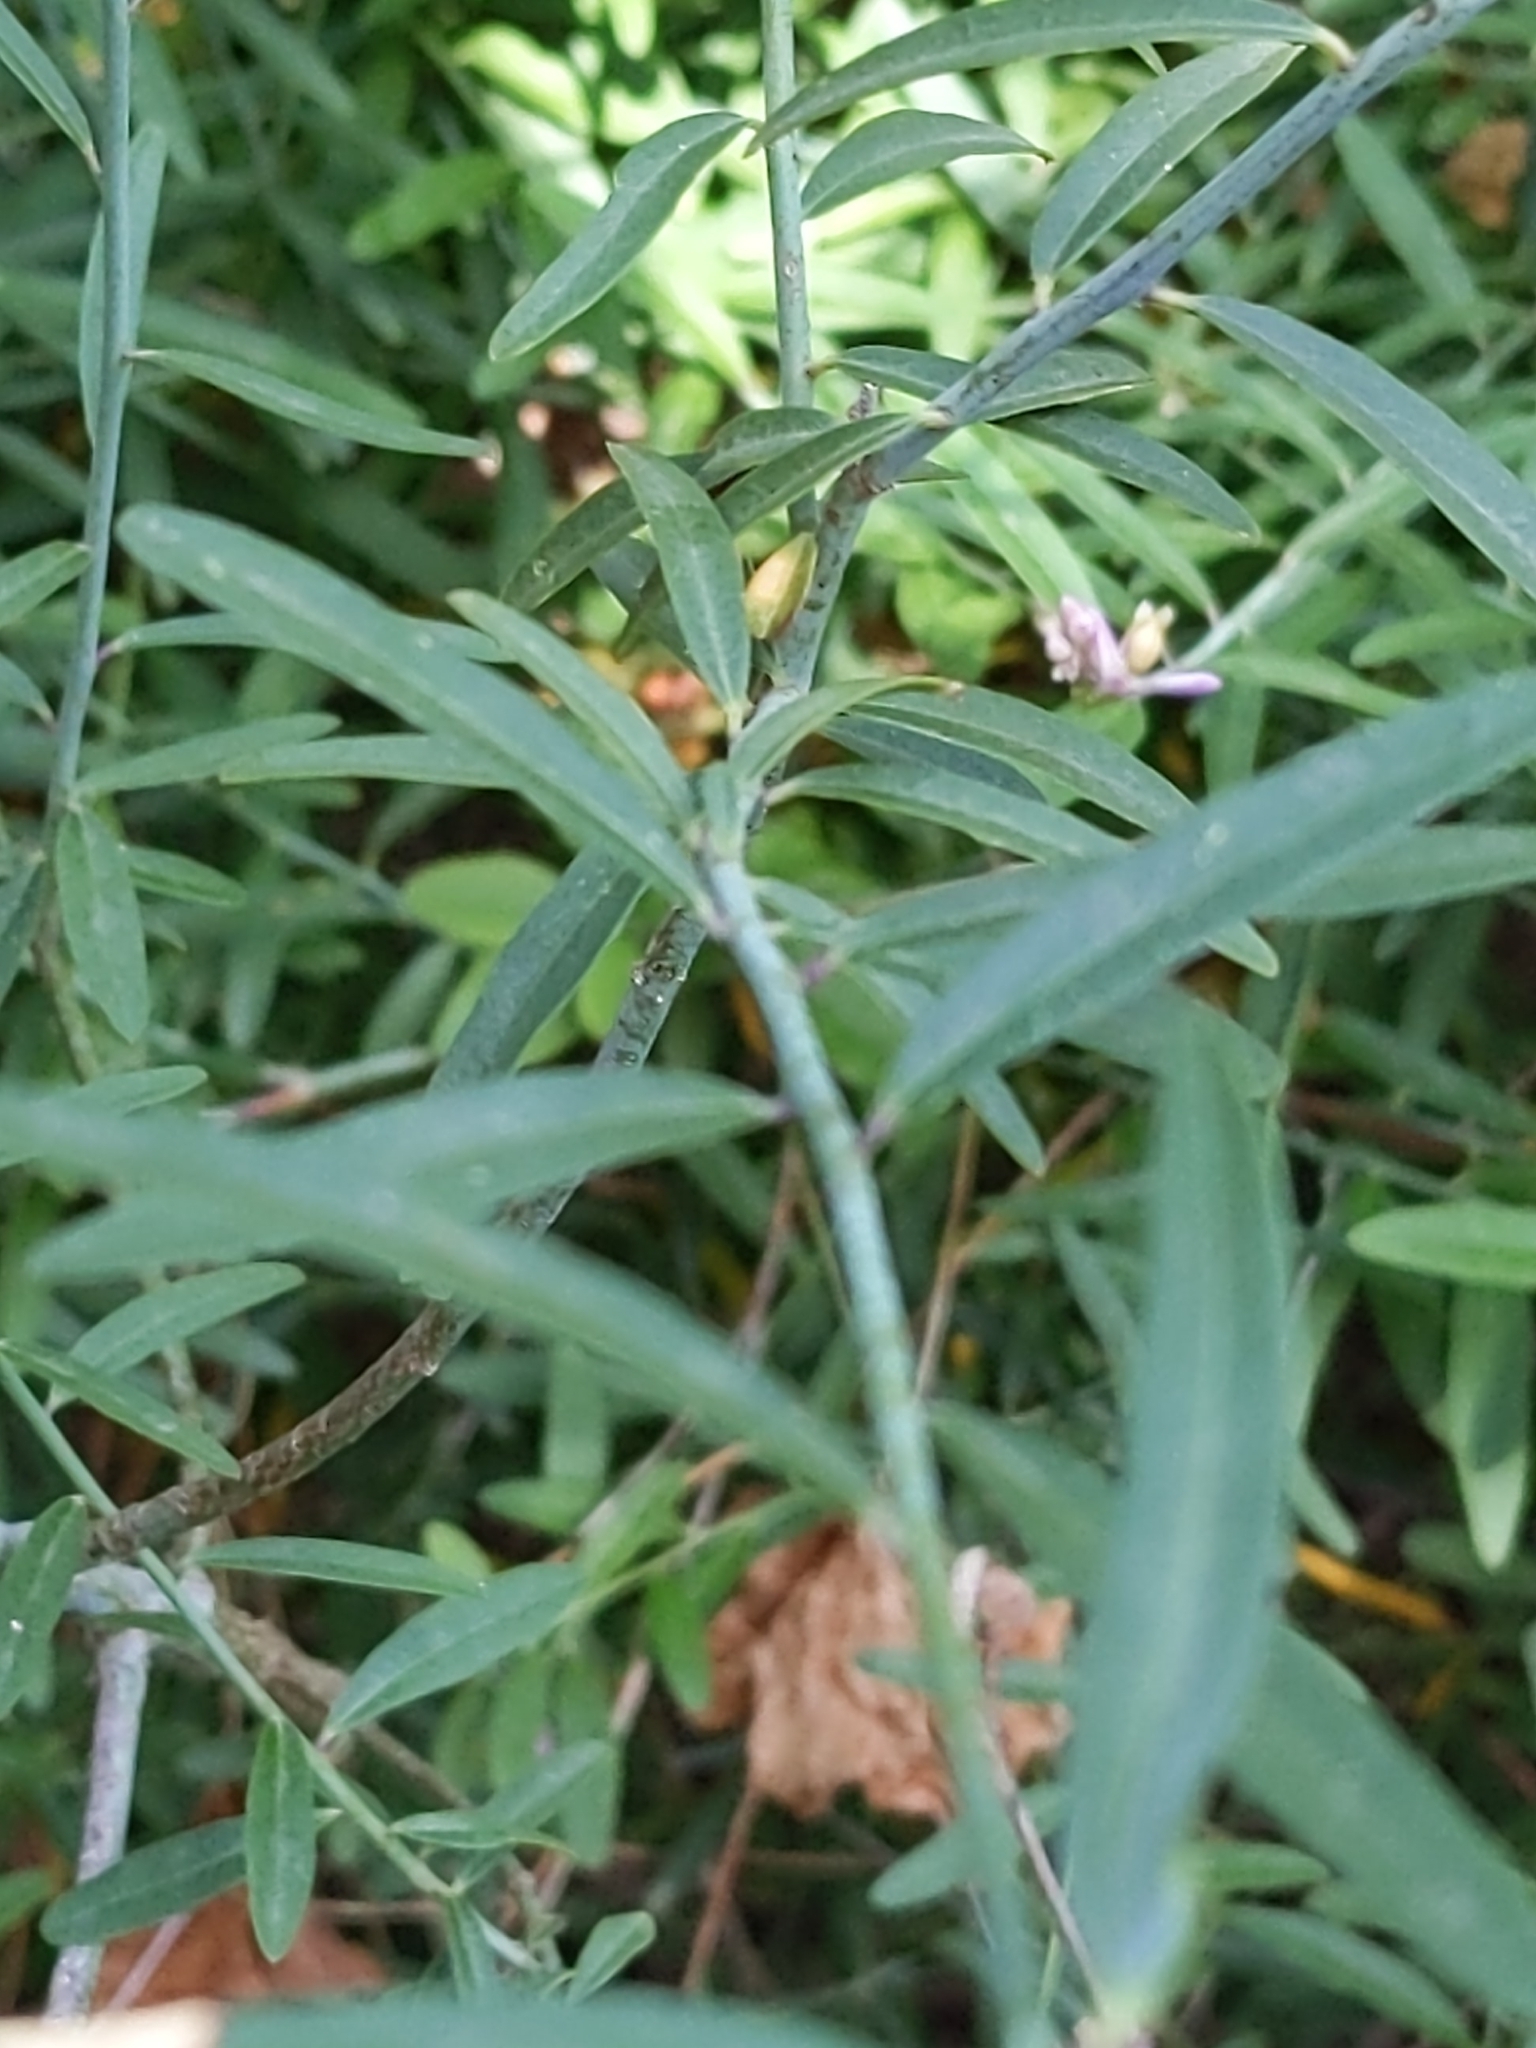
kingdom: Plantae
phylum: Tracheophyta
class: Magnoliopsida
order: Fabales
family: Polygalaceae
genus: Rhinotropis
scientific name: Rhinotropis cornuta
